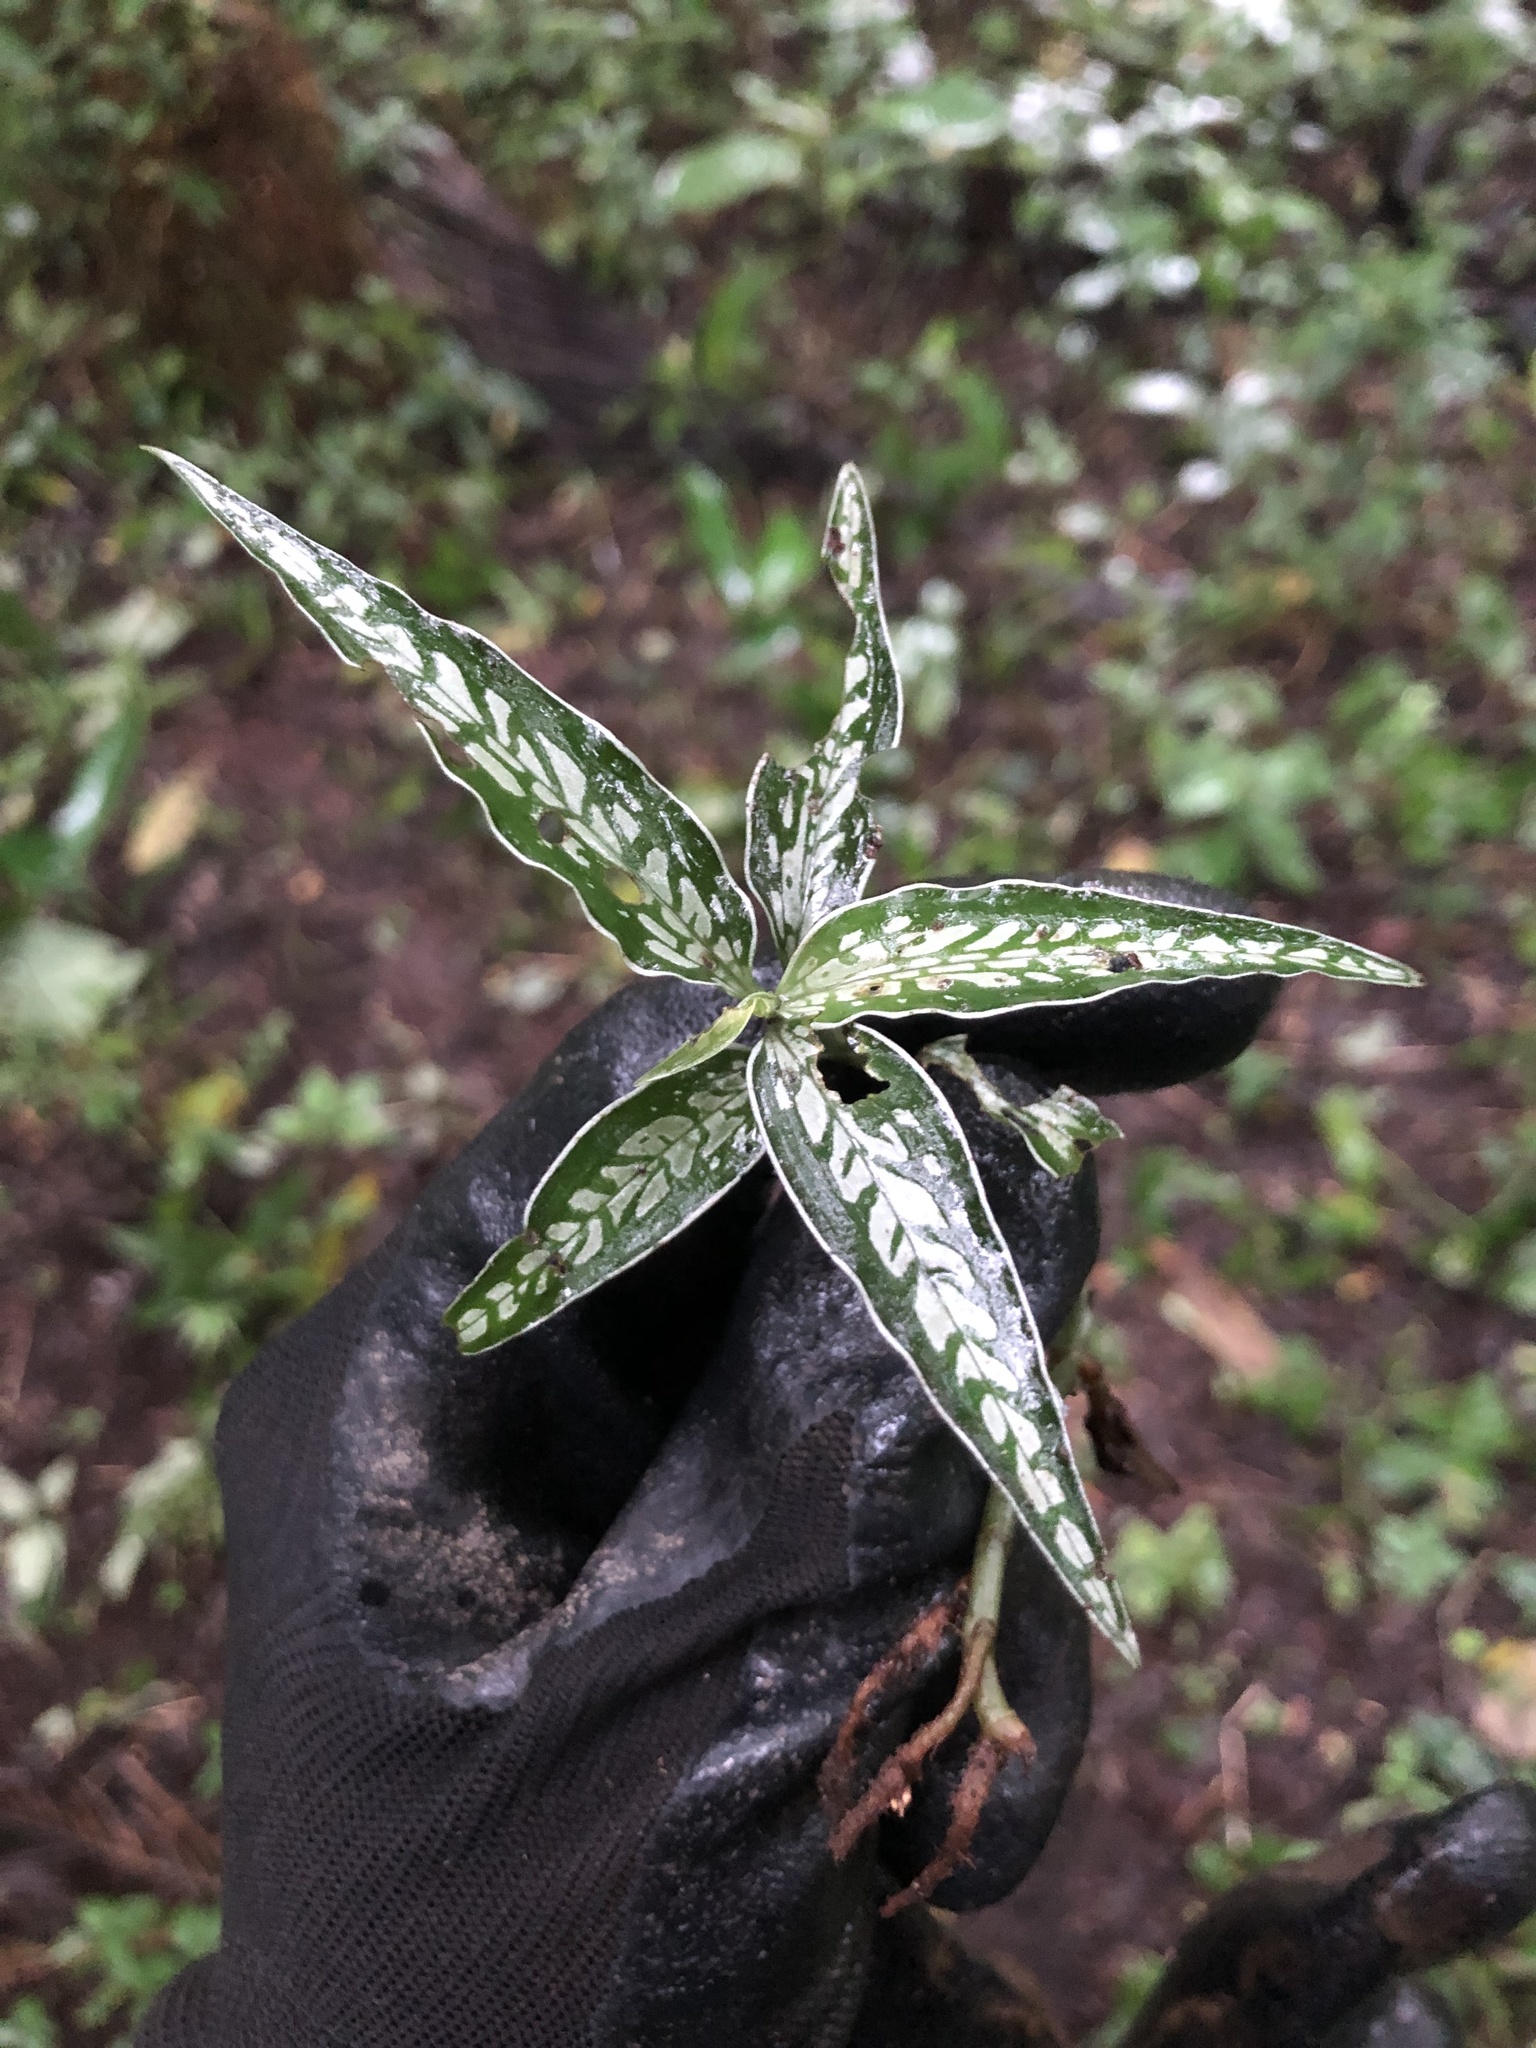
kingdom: Plantae
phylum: Tracheophyta
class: Liliopsida
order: Asparagales
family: Orchidaceae
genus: Aspidogyne
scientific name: Aspidogyne querceticola
